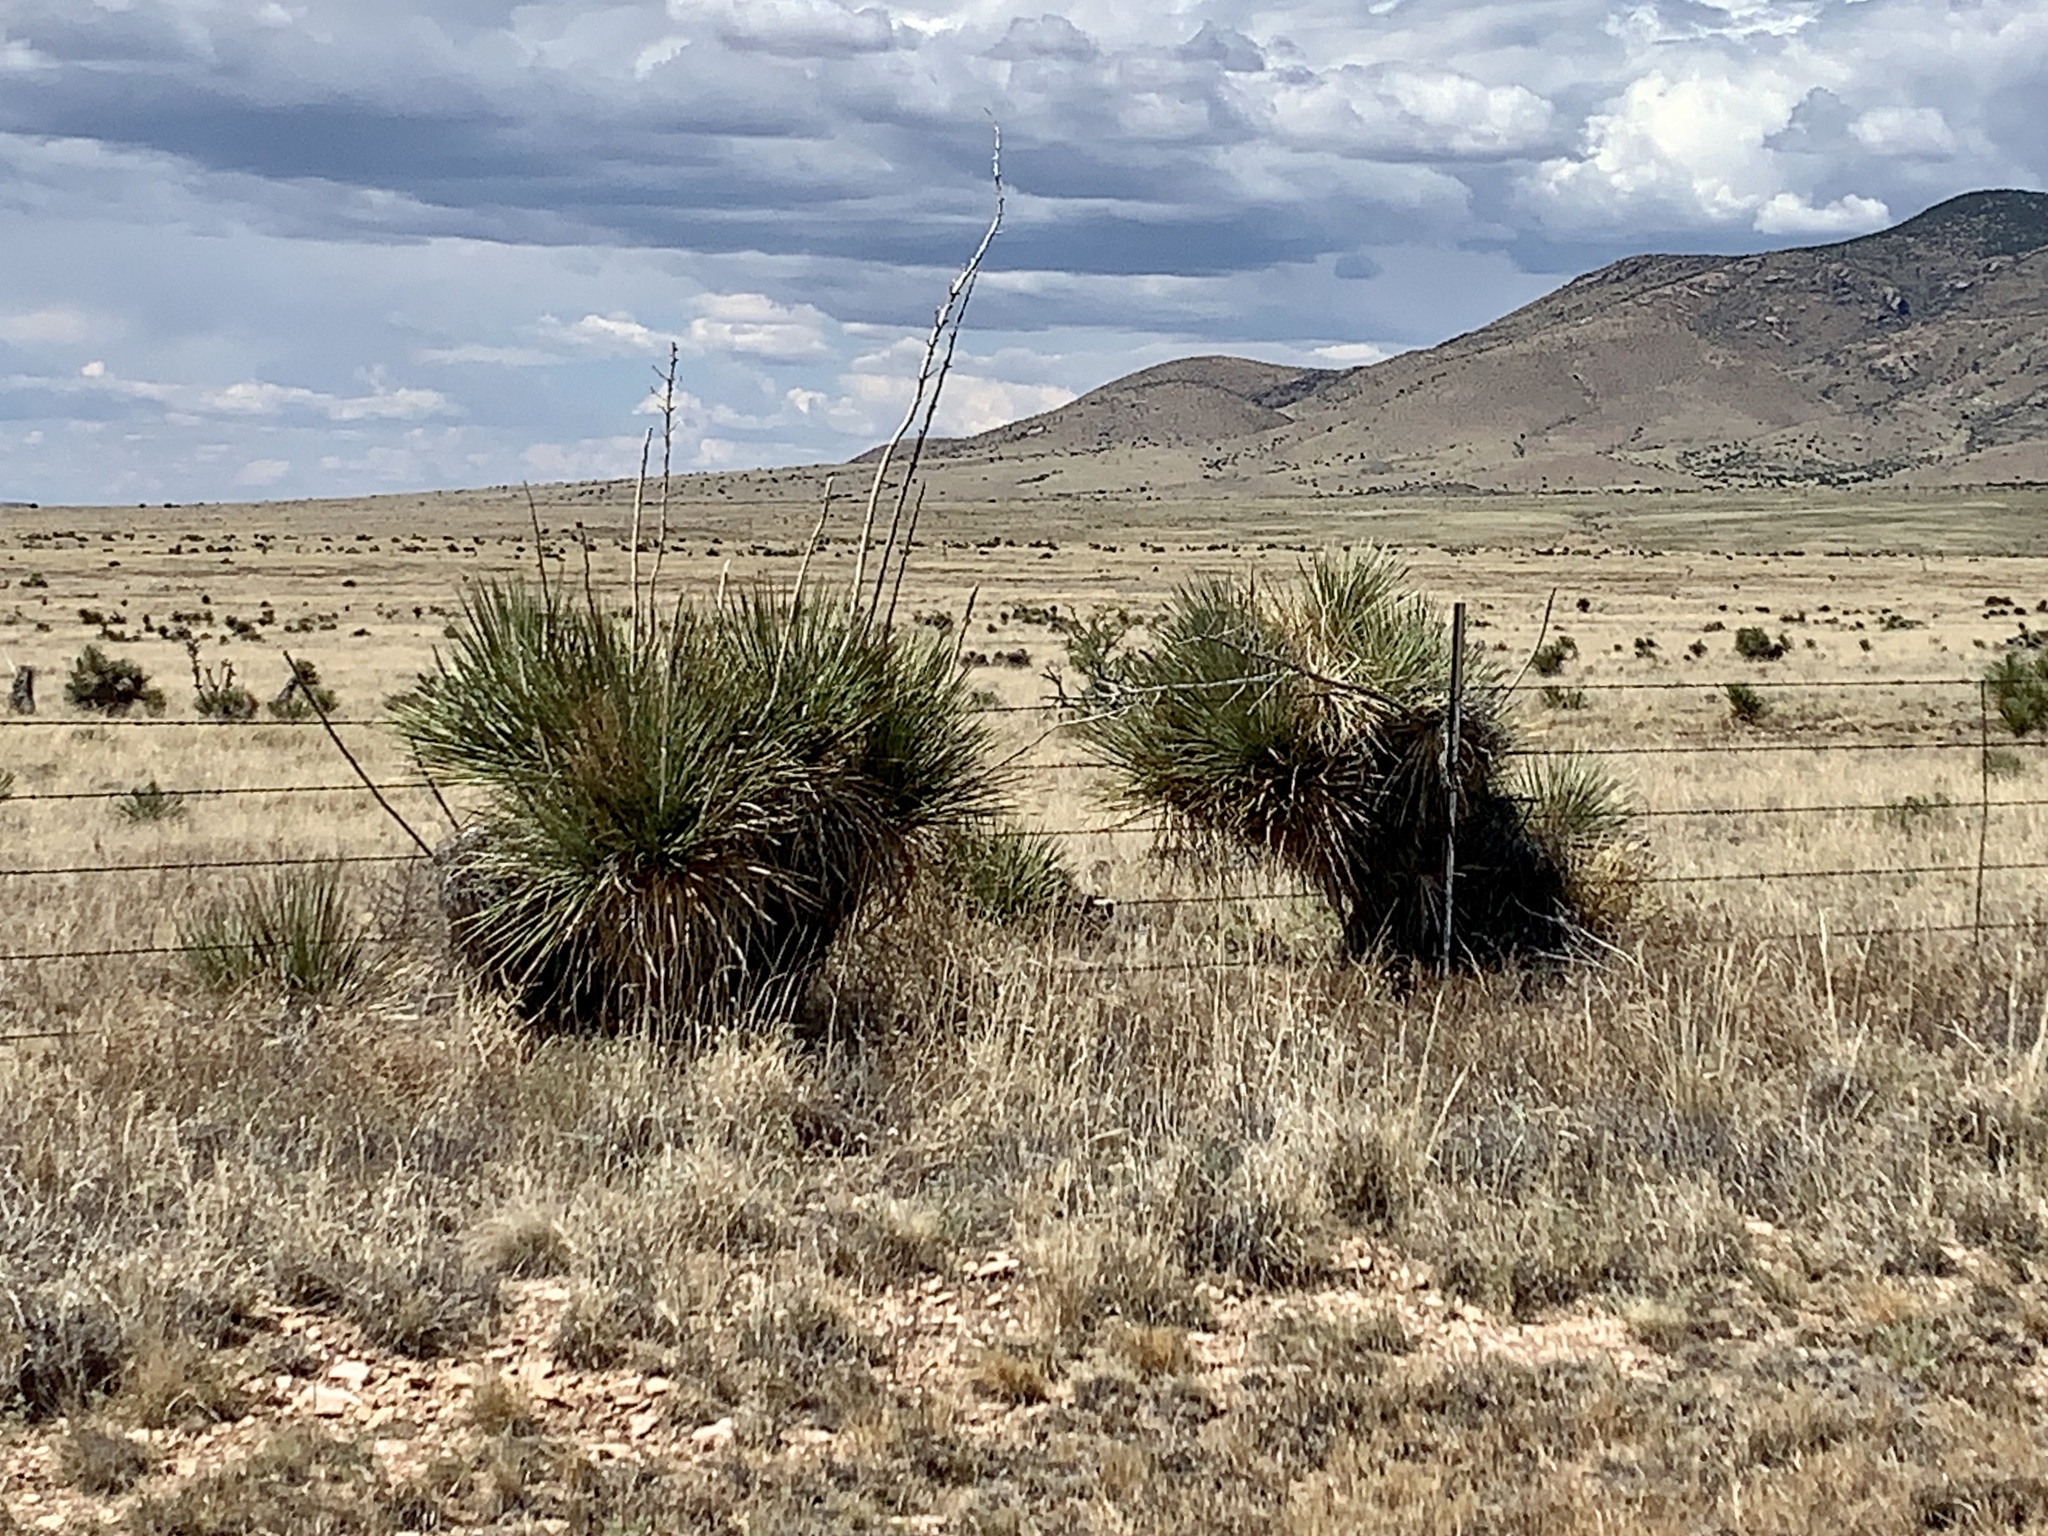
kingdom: Plantae
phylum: Tracheophyta
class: Liliopsida
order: Asparagales
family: Asparagaceae
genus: Yucca
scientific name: Yucca elata
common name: Palmella
